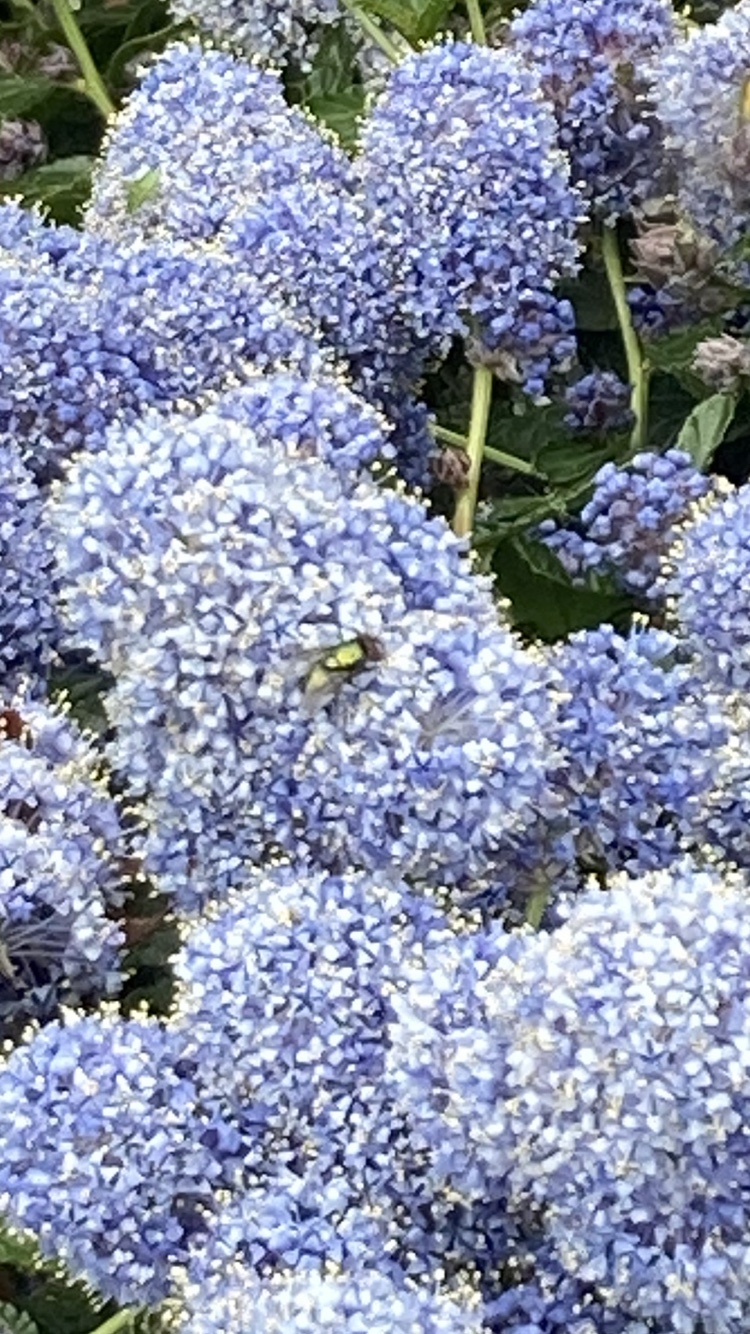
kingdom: Animalia
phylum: Arthropoda
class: Insecta
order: Diptera
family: Calliphoridae
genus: Lucilia
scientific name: Lucilia
